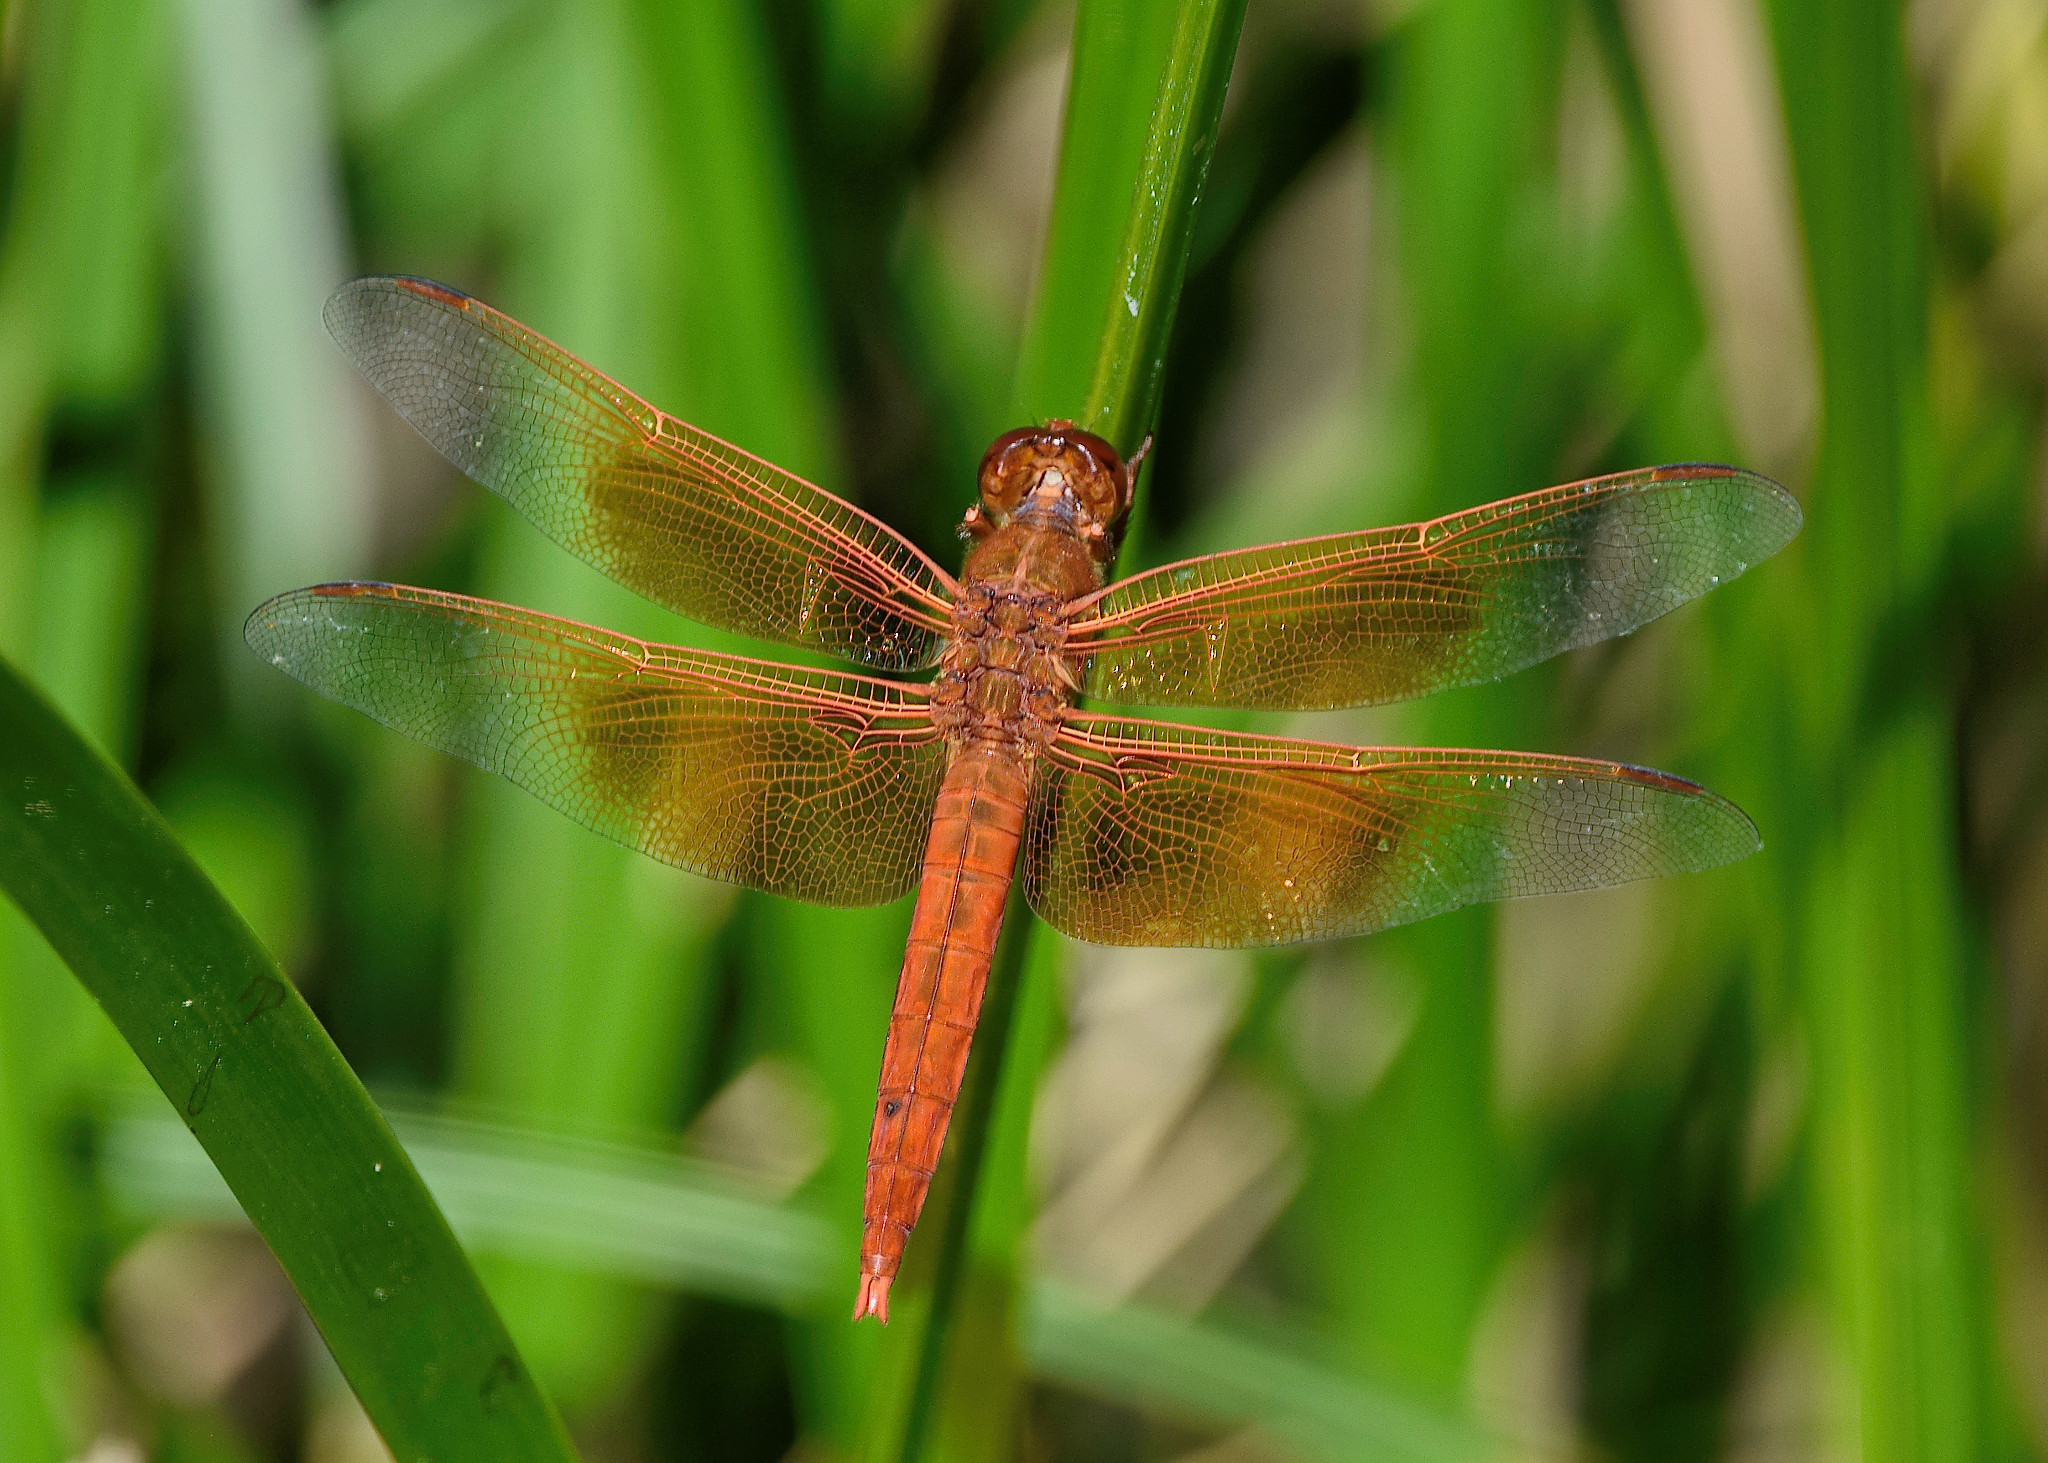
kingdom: Animalia
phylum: Arthropoda
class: Insecta
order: Odonata
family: Libellulidae
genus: Libellula
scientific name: Libellula saturata
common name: Flame skimmer
